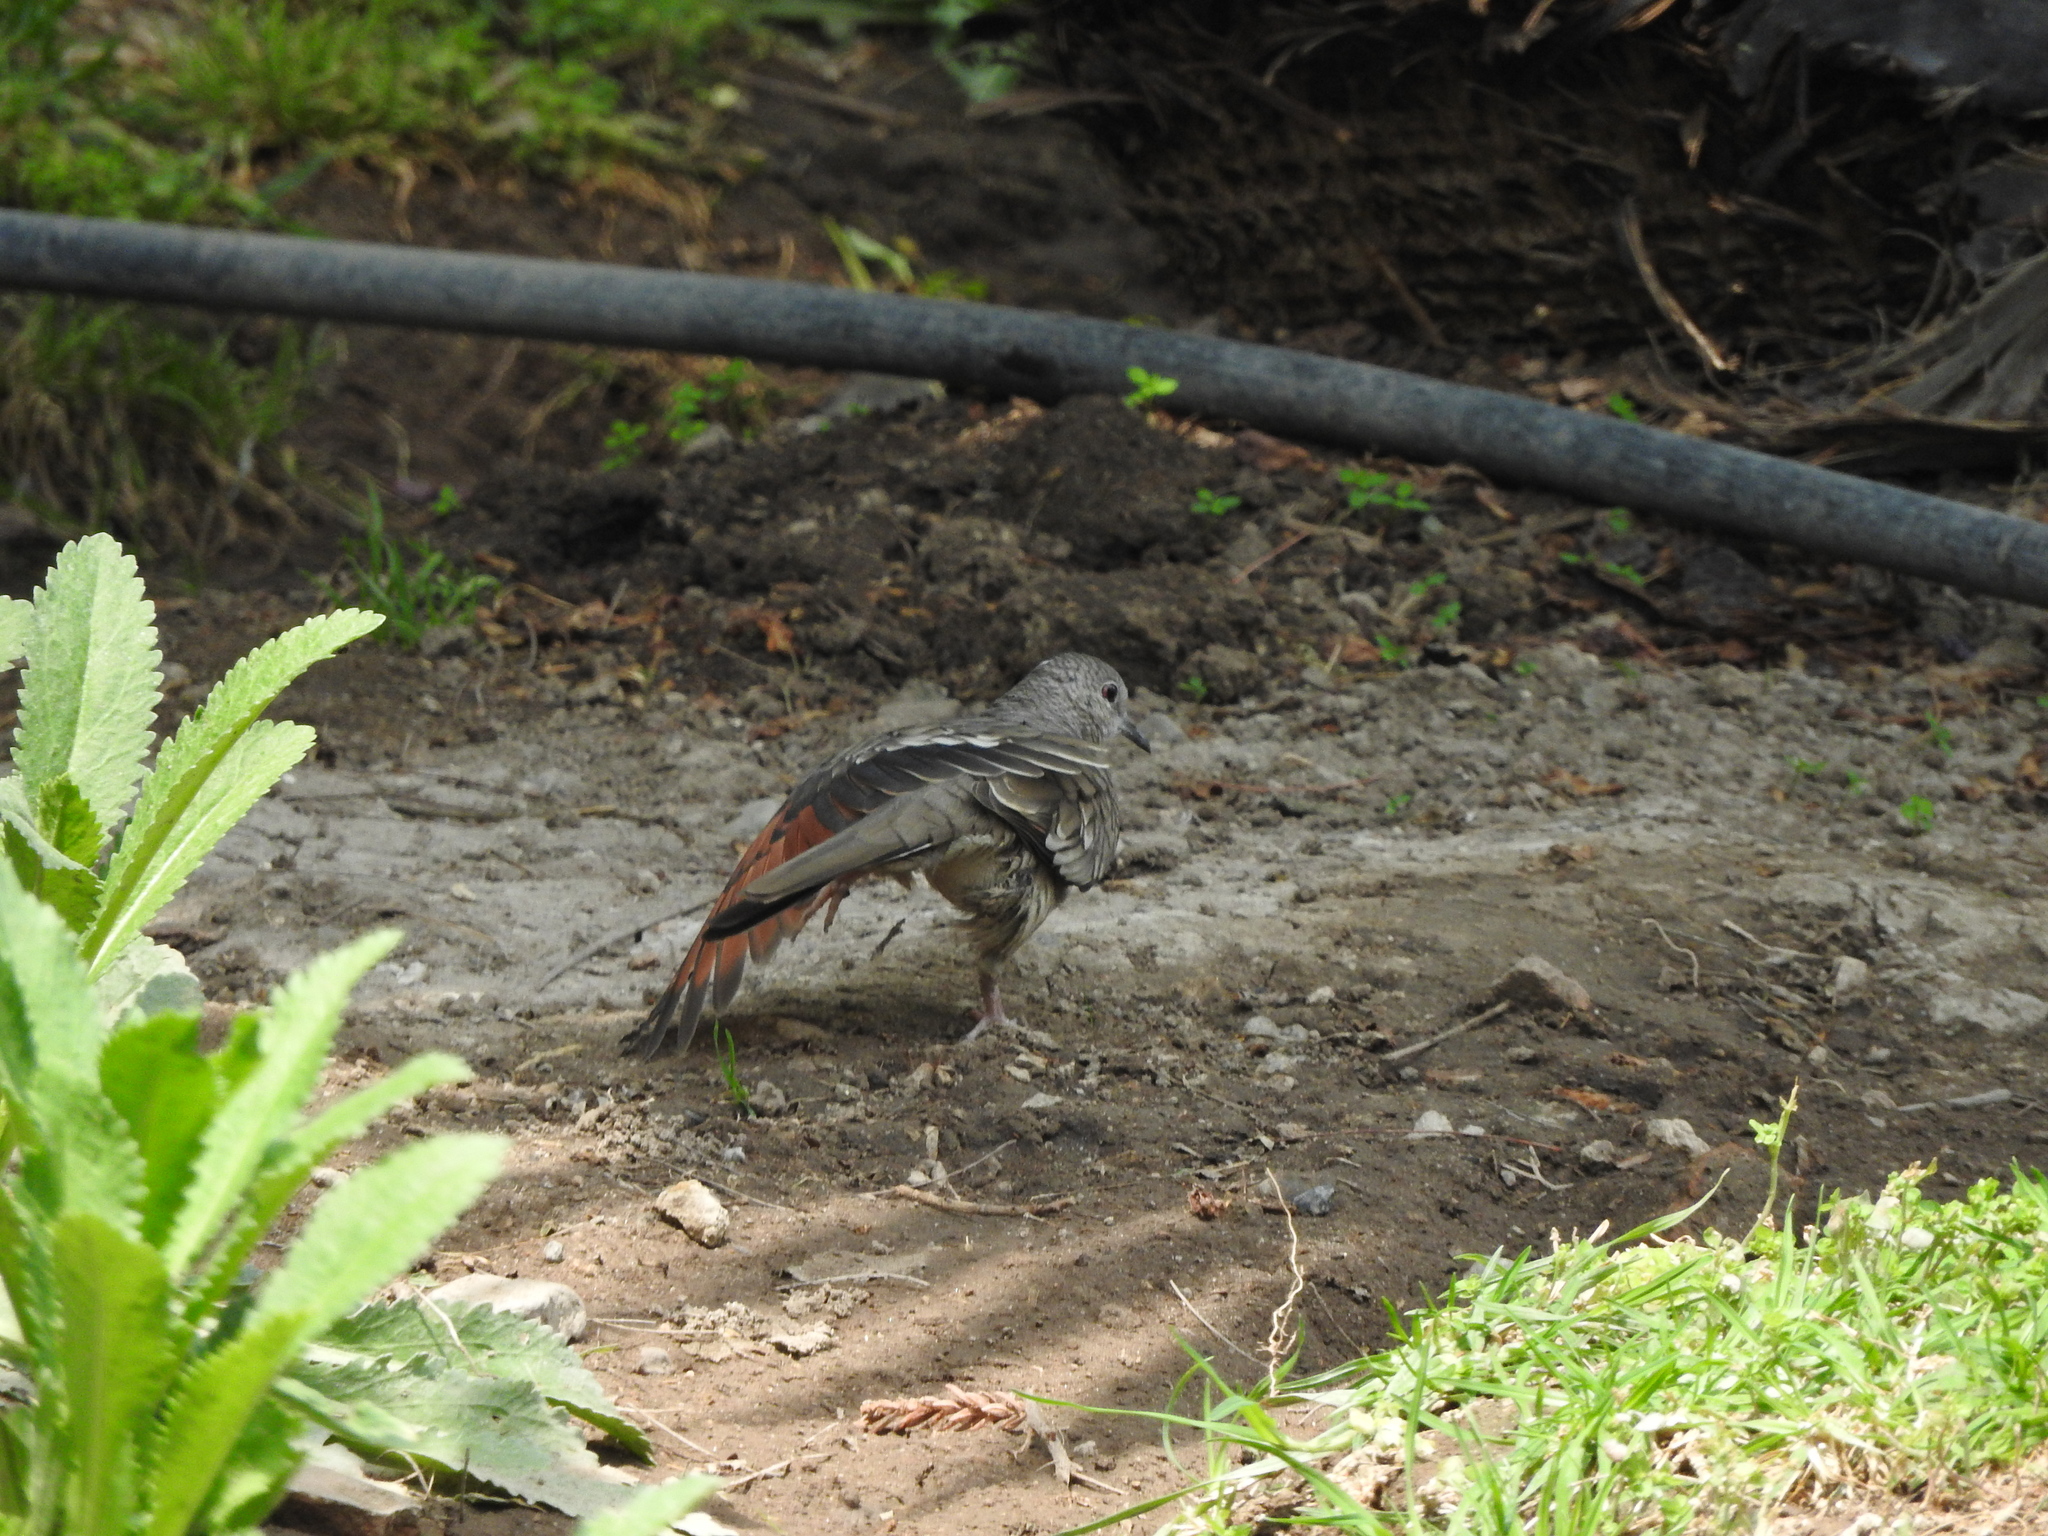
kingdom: Animalia
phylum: Chordata
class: Aves
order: Columbiformes
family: Columbidae
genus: Columbina
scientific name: Columbina inca
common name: Inca dove
